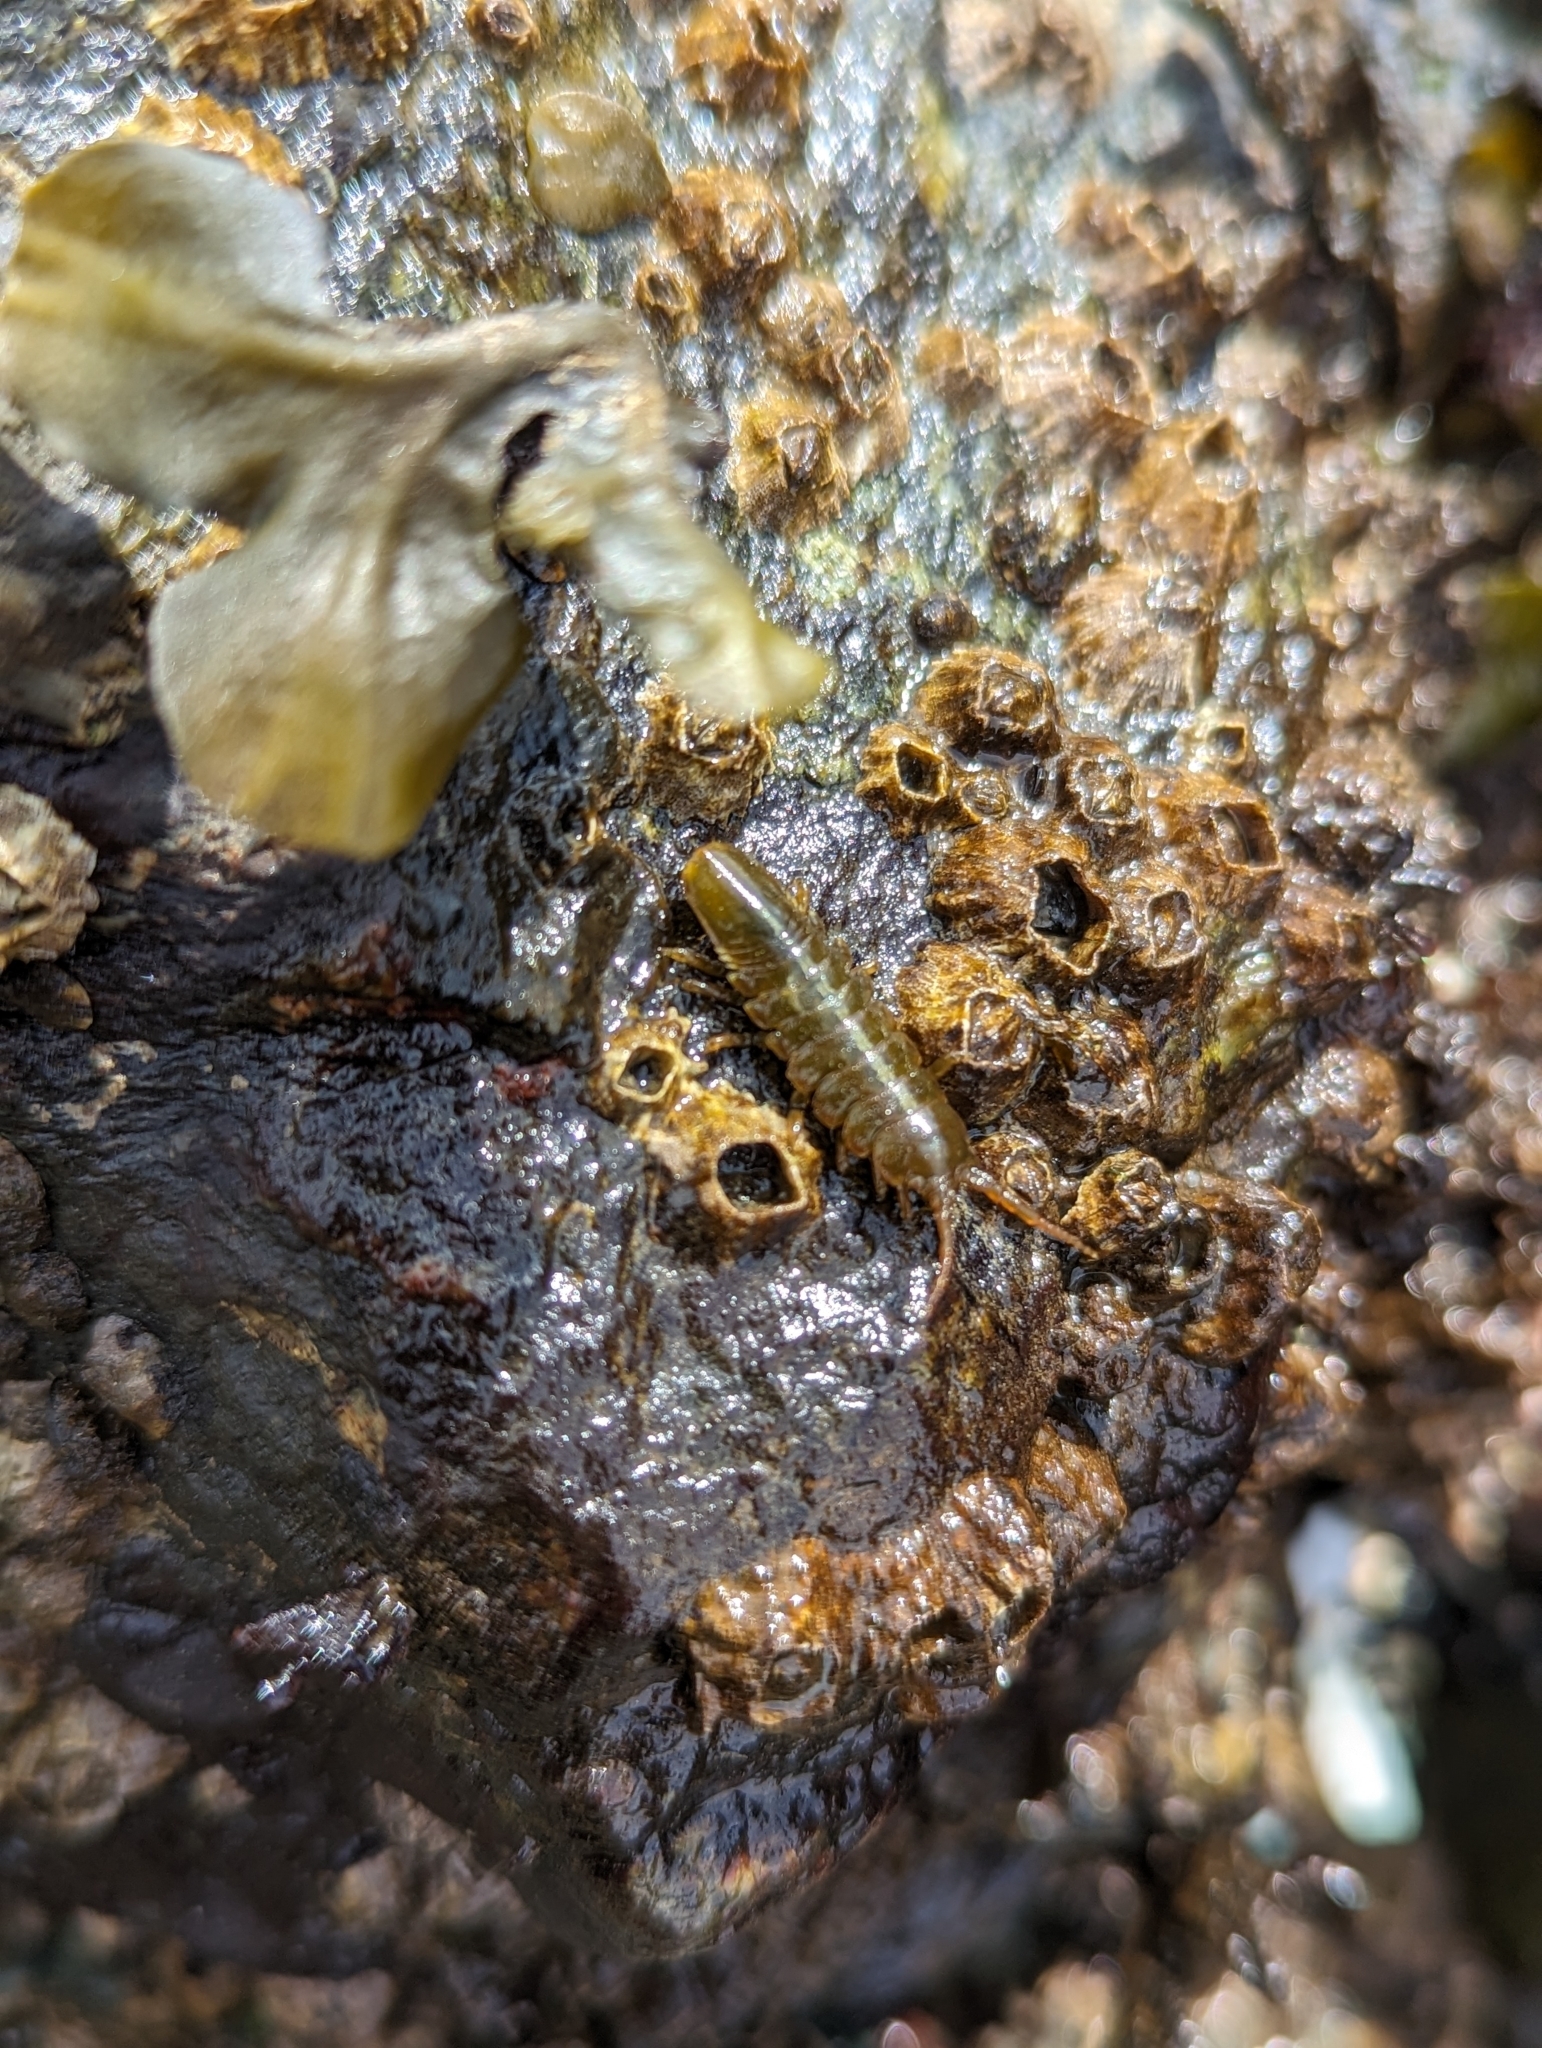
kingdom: Animalia
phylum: Arthropoda
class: Malacostraca
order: Isopoda
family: Idoteidae
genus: Pentidotea
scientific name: Pentidotea wosnesenskii
